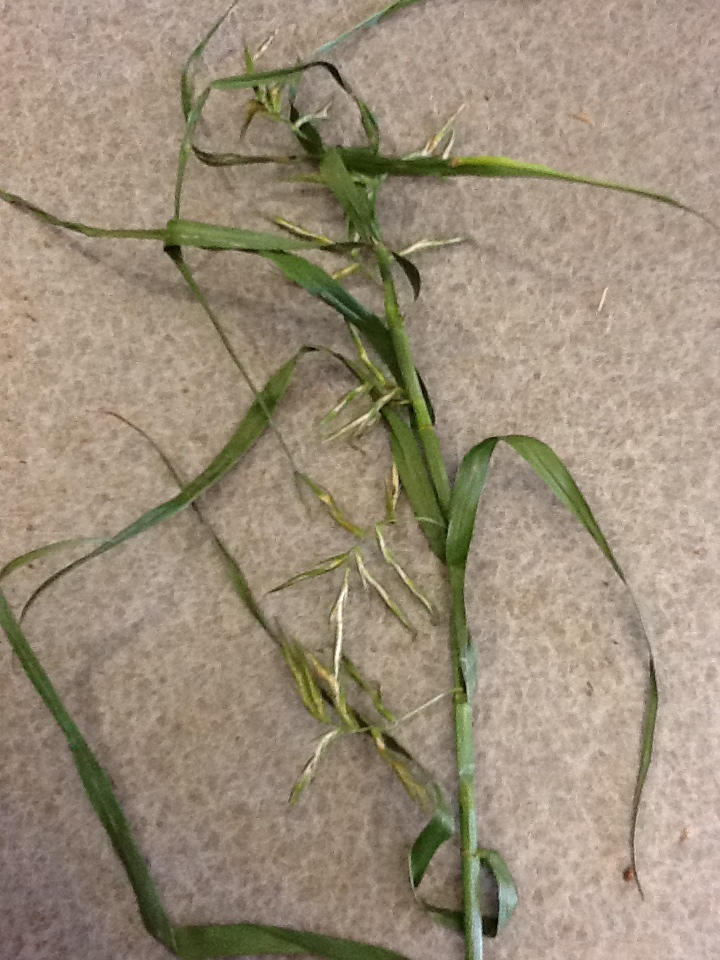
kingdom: Plantae
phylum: Tracheophyta
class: Liliopsida
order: Poales
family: Cyperaceae
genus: Dulichium
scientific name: Dulichium arundinaceum
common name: Three-way sedge
